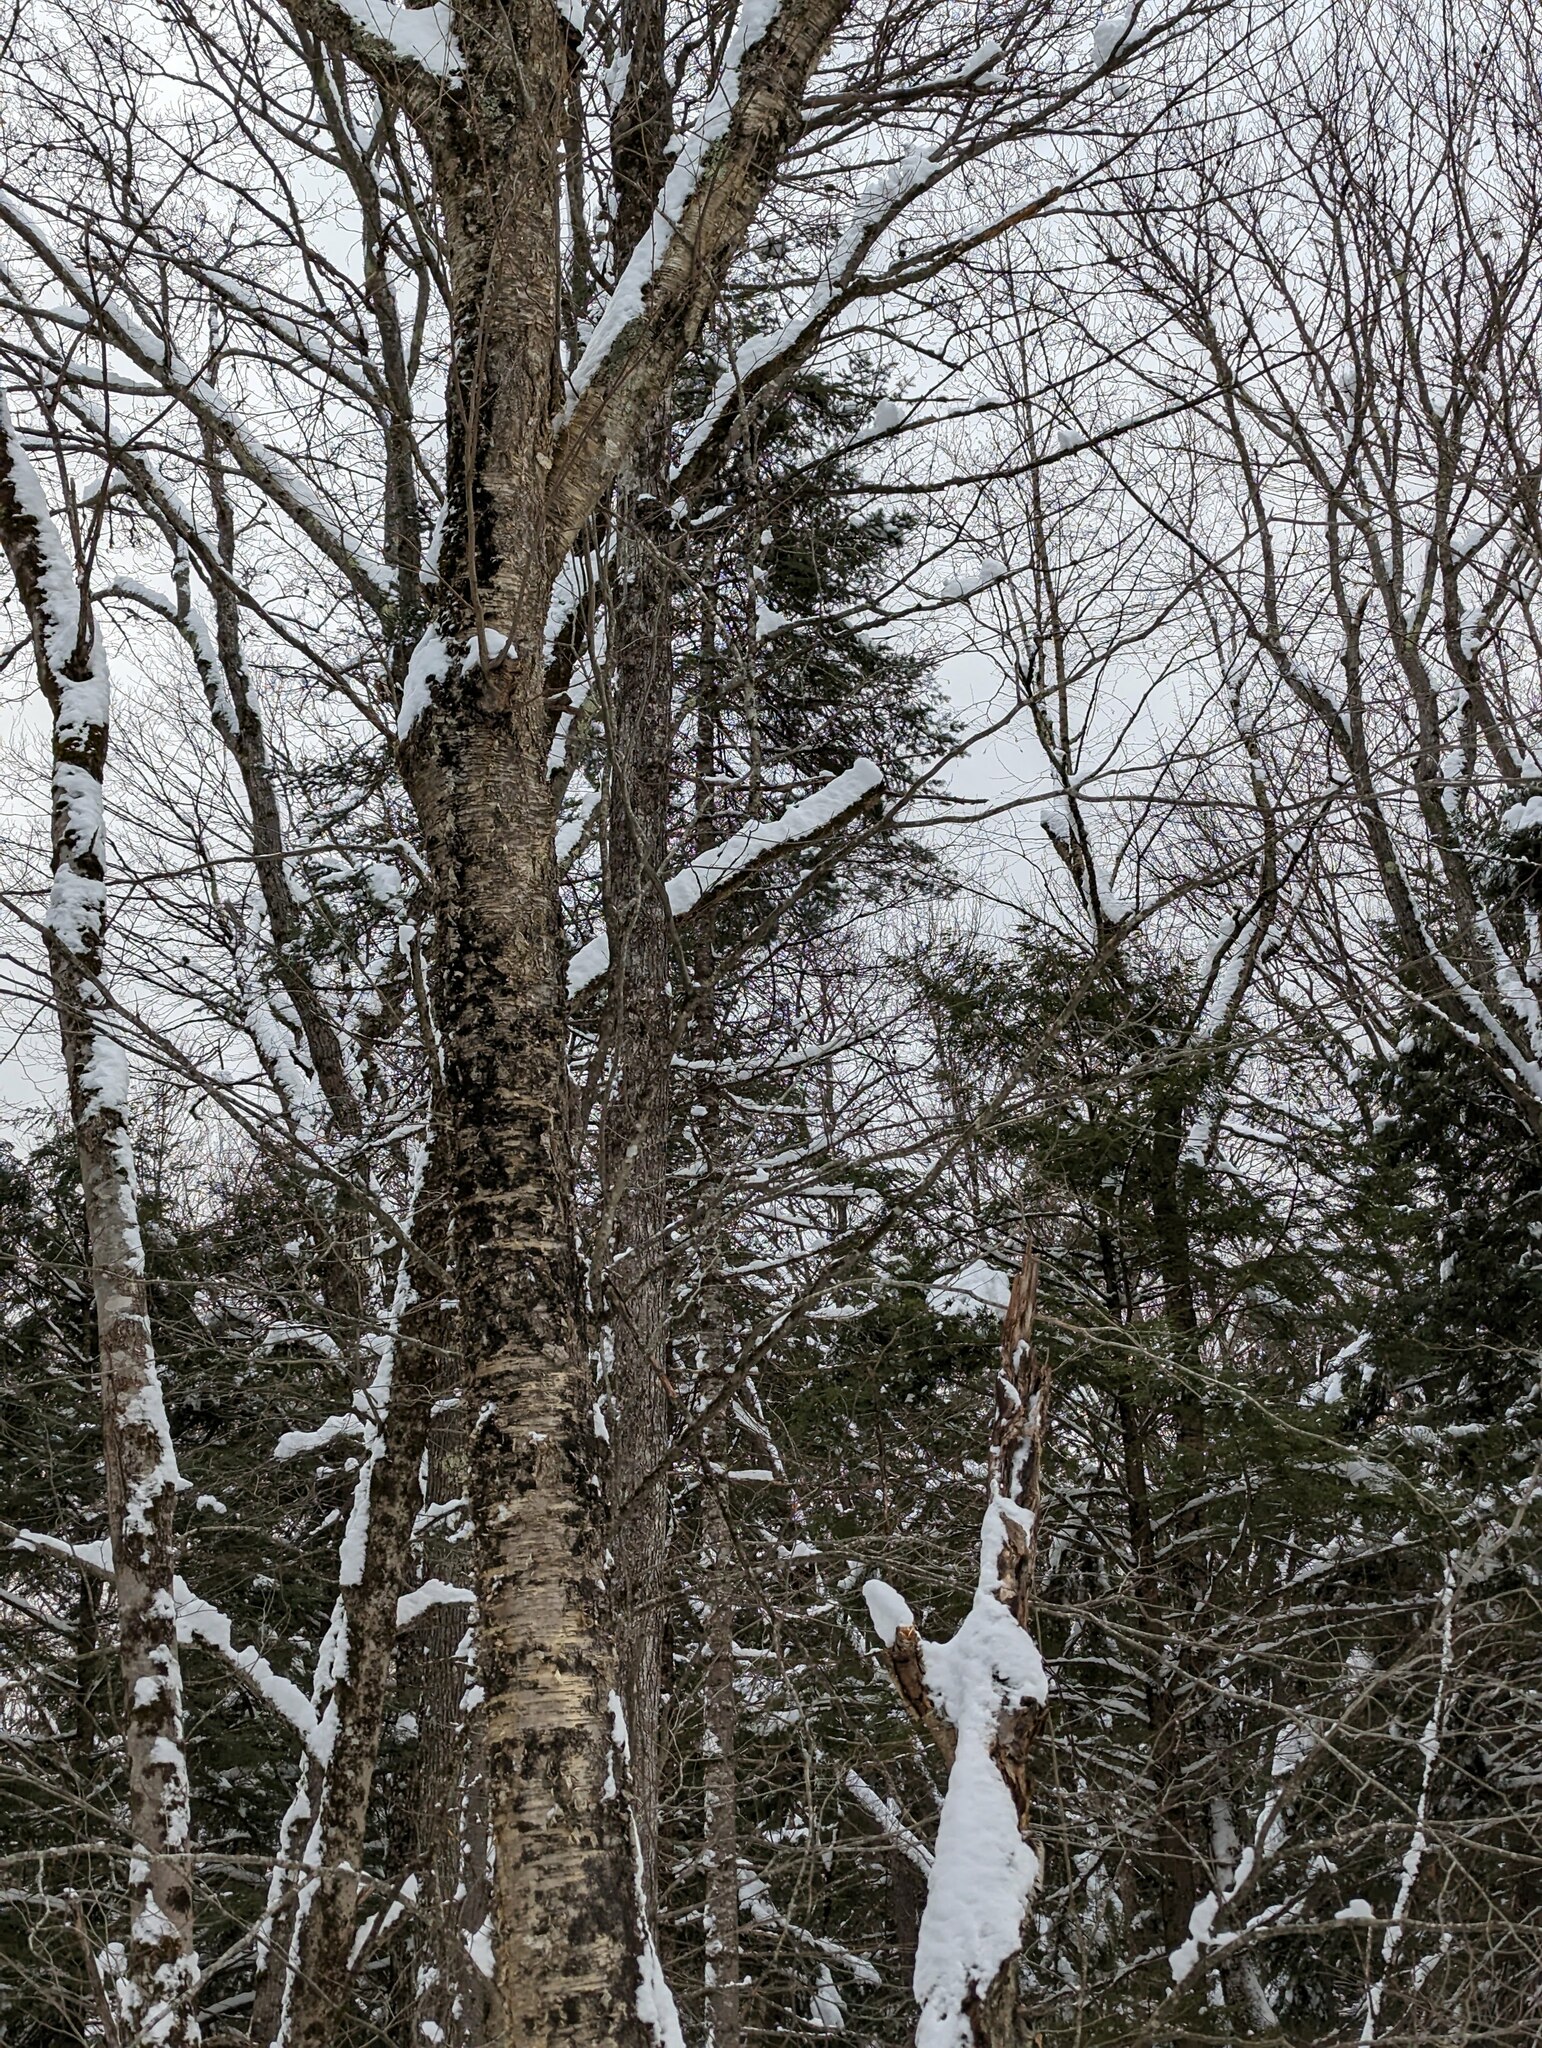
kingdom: Plantae
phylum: Tracheophyta
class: Magnoliopsida
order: Fagales
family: Betulaceae
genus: Betula
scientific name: Betula alleghaniensis
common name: Yellow birch
